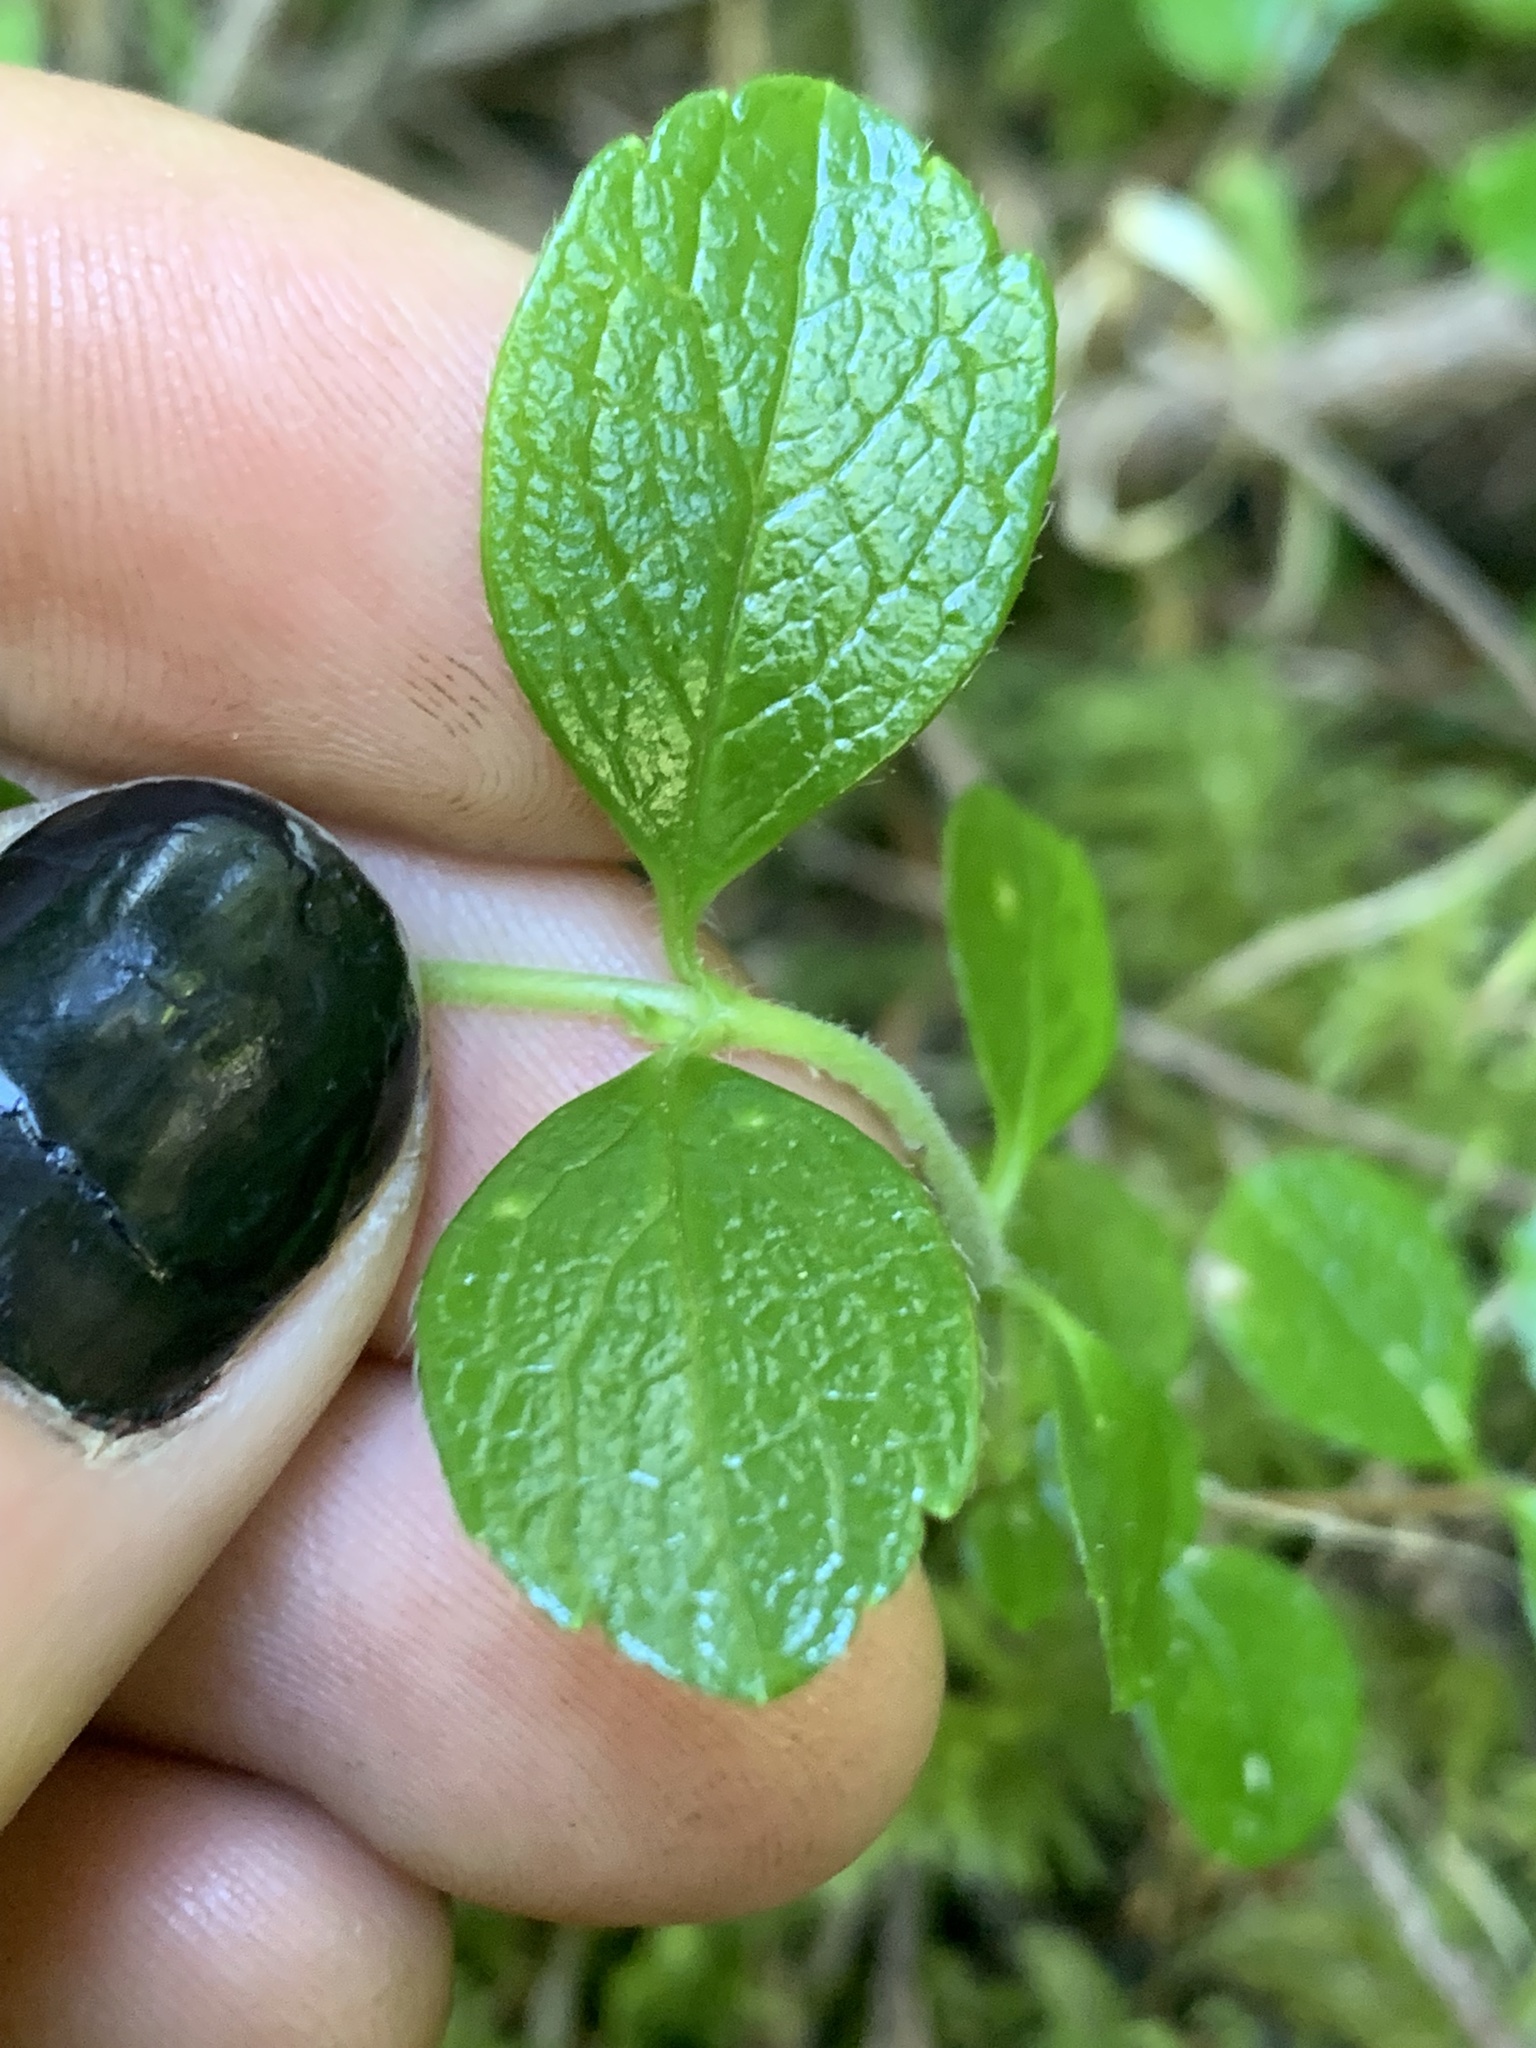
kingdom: Plantae
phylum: Tracheophyta
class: Magnoliopsida
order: Dipsacales
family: Caprifoliaceae
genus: Linnaea
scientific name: Linnaea borealis
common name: Twinflower
